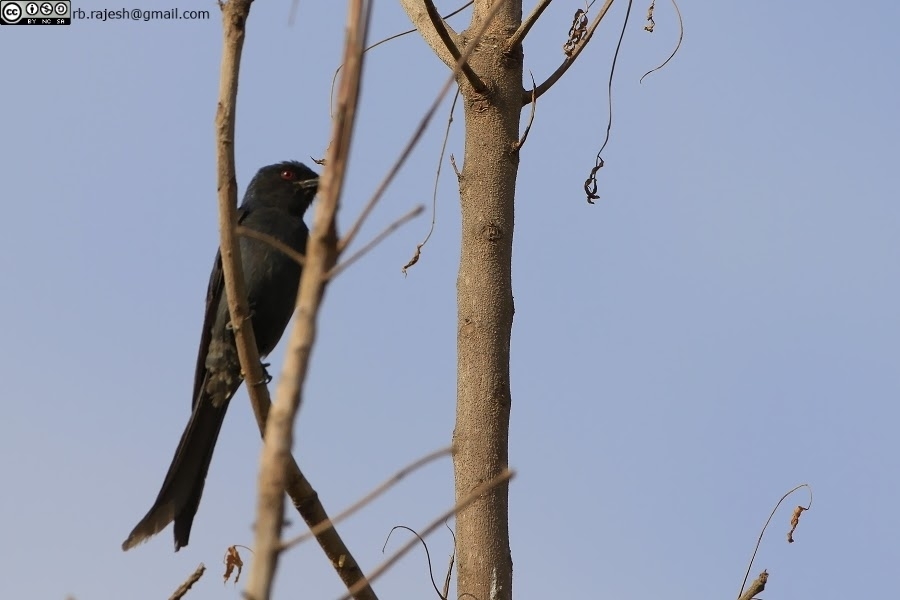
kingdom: Animalia
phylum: Chordata
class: Aves
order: Passeriformes
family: Dicruridae
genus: Dicrurus
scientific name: Dicrurus leucophaeus
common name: Ashy drongo
